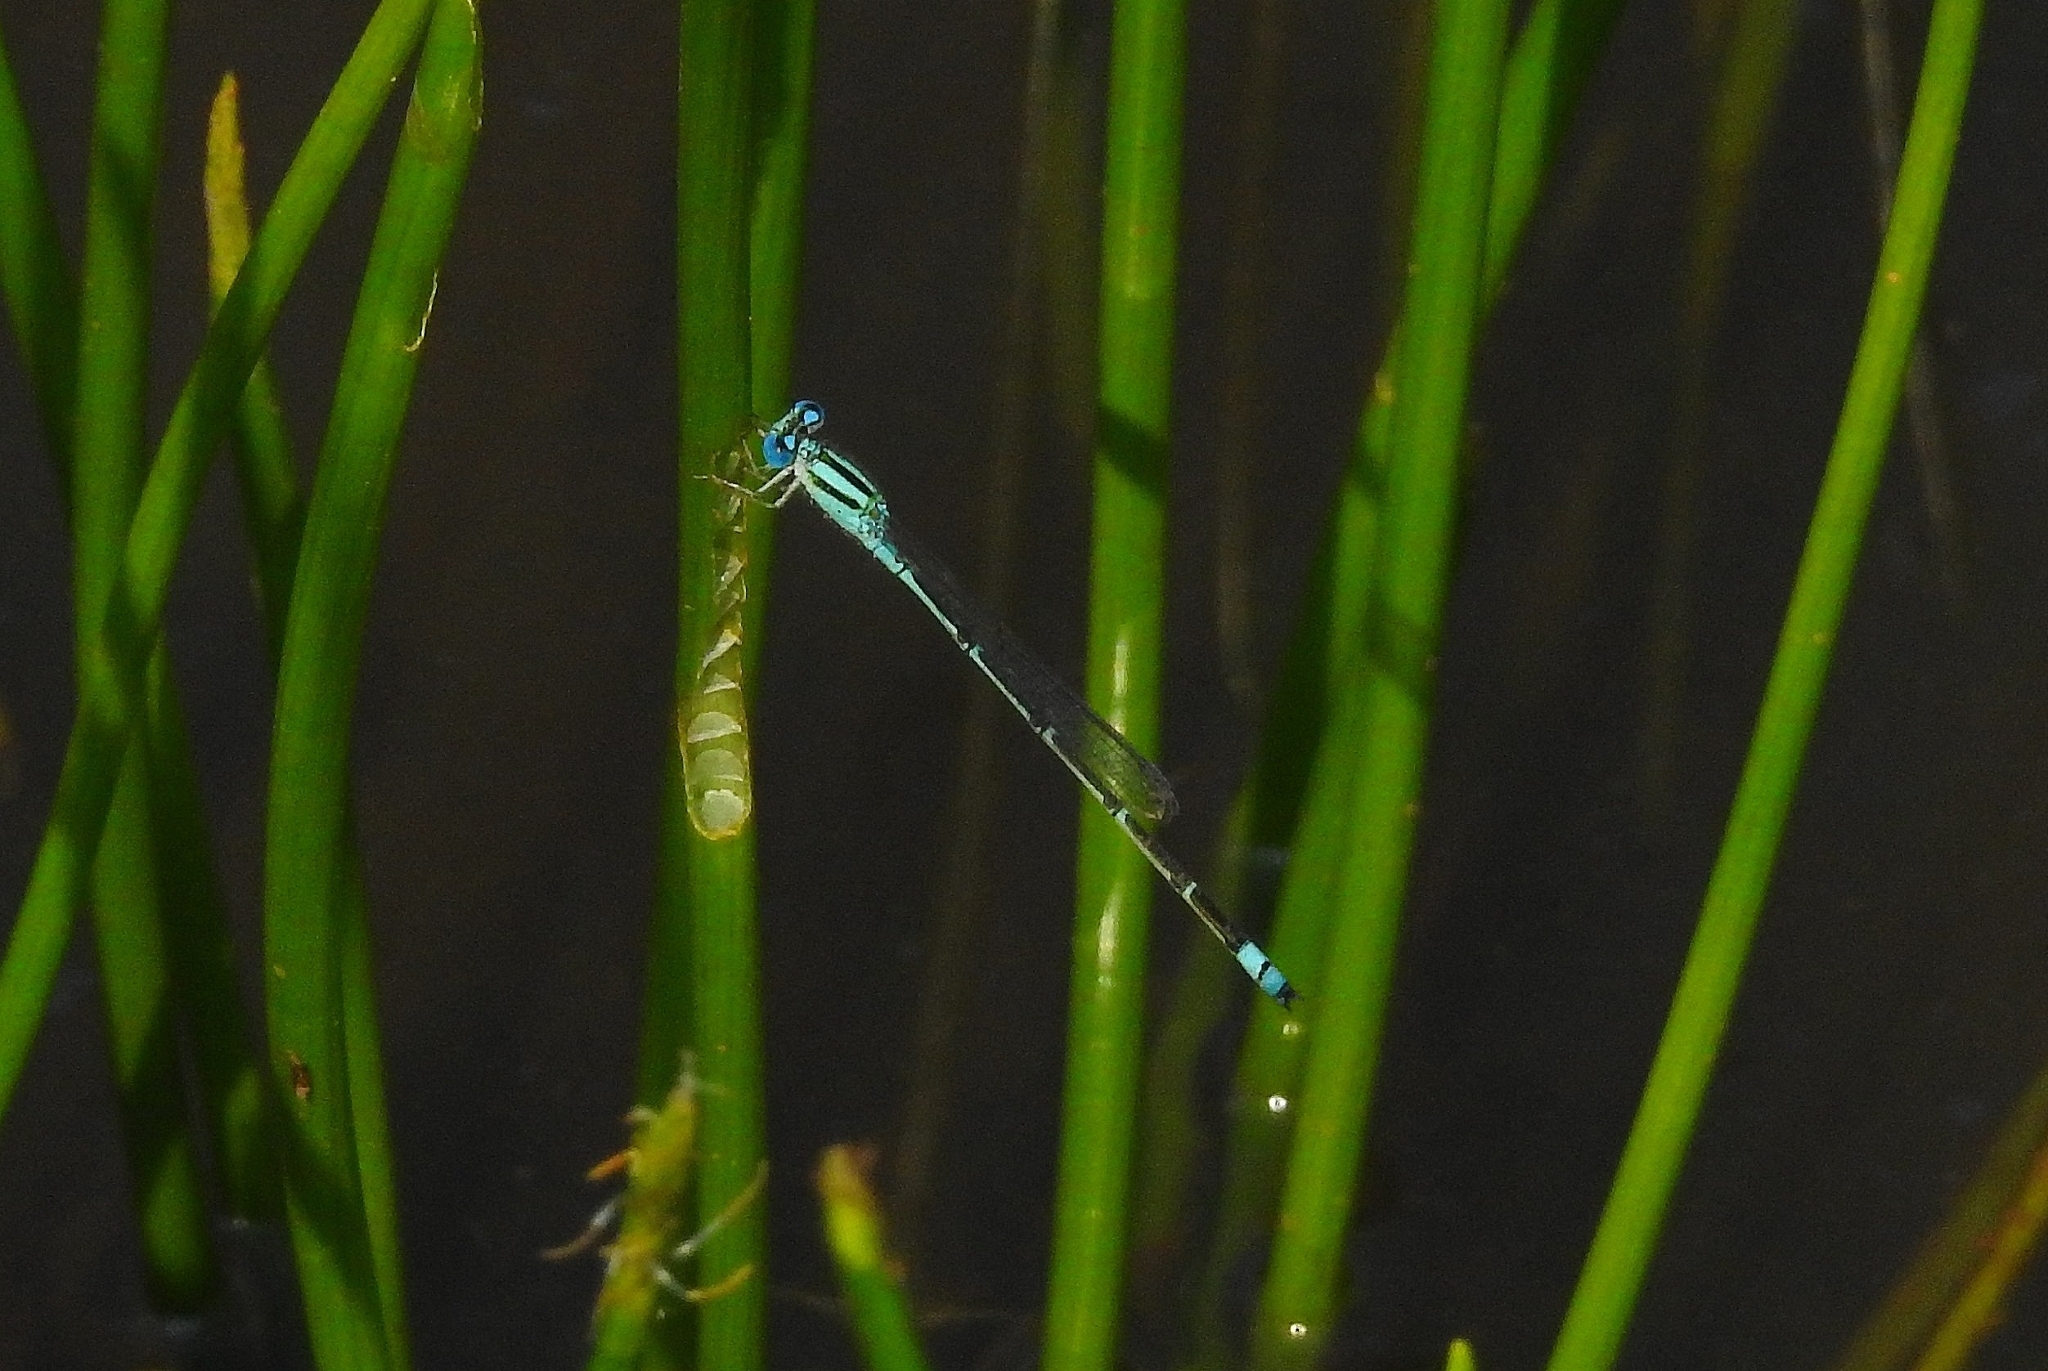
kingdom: Animalia
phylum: Arthropoda
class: Insecta
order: Odonata
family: Coenagrionidae
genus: Pseudagrion
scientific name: Pseudagrion microcephalum
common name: Blue riverdamsel
